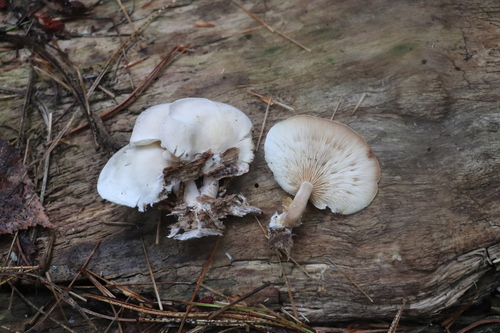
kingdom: Fungi
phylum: Basidiomycota
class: Agaricomycetes
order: Agaricales
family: Lyophyllaceae
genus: Ossicaulis
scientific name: Ossicaulis lignatilis
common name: Mealy oyster
